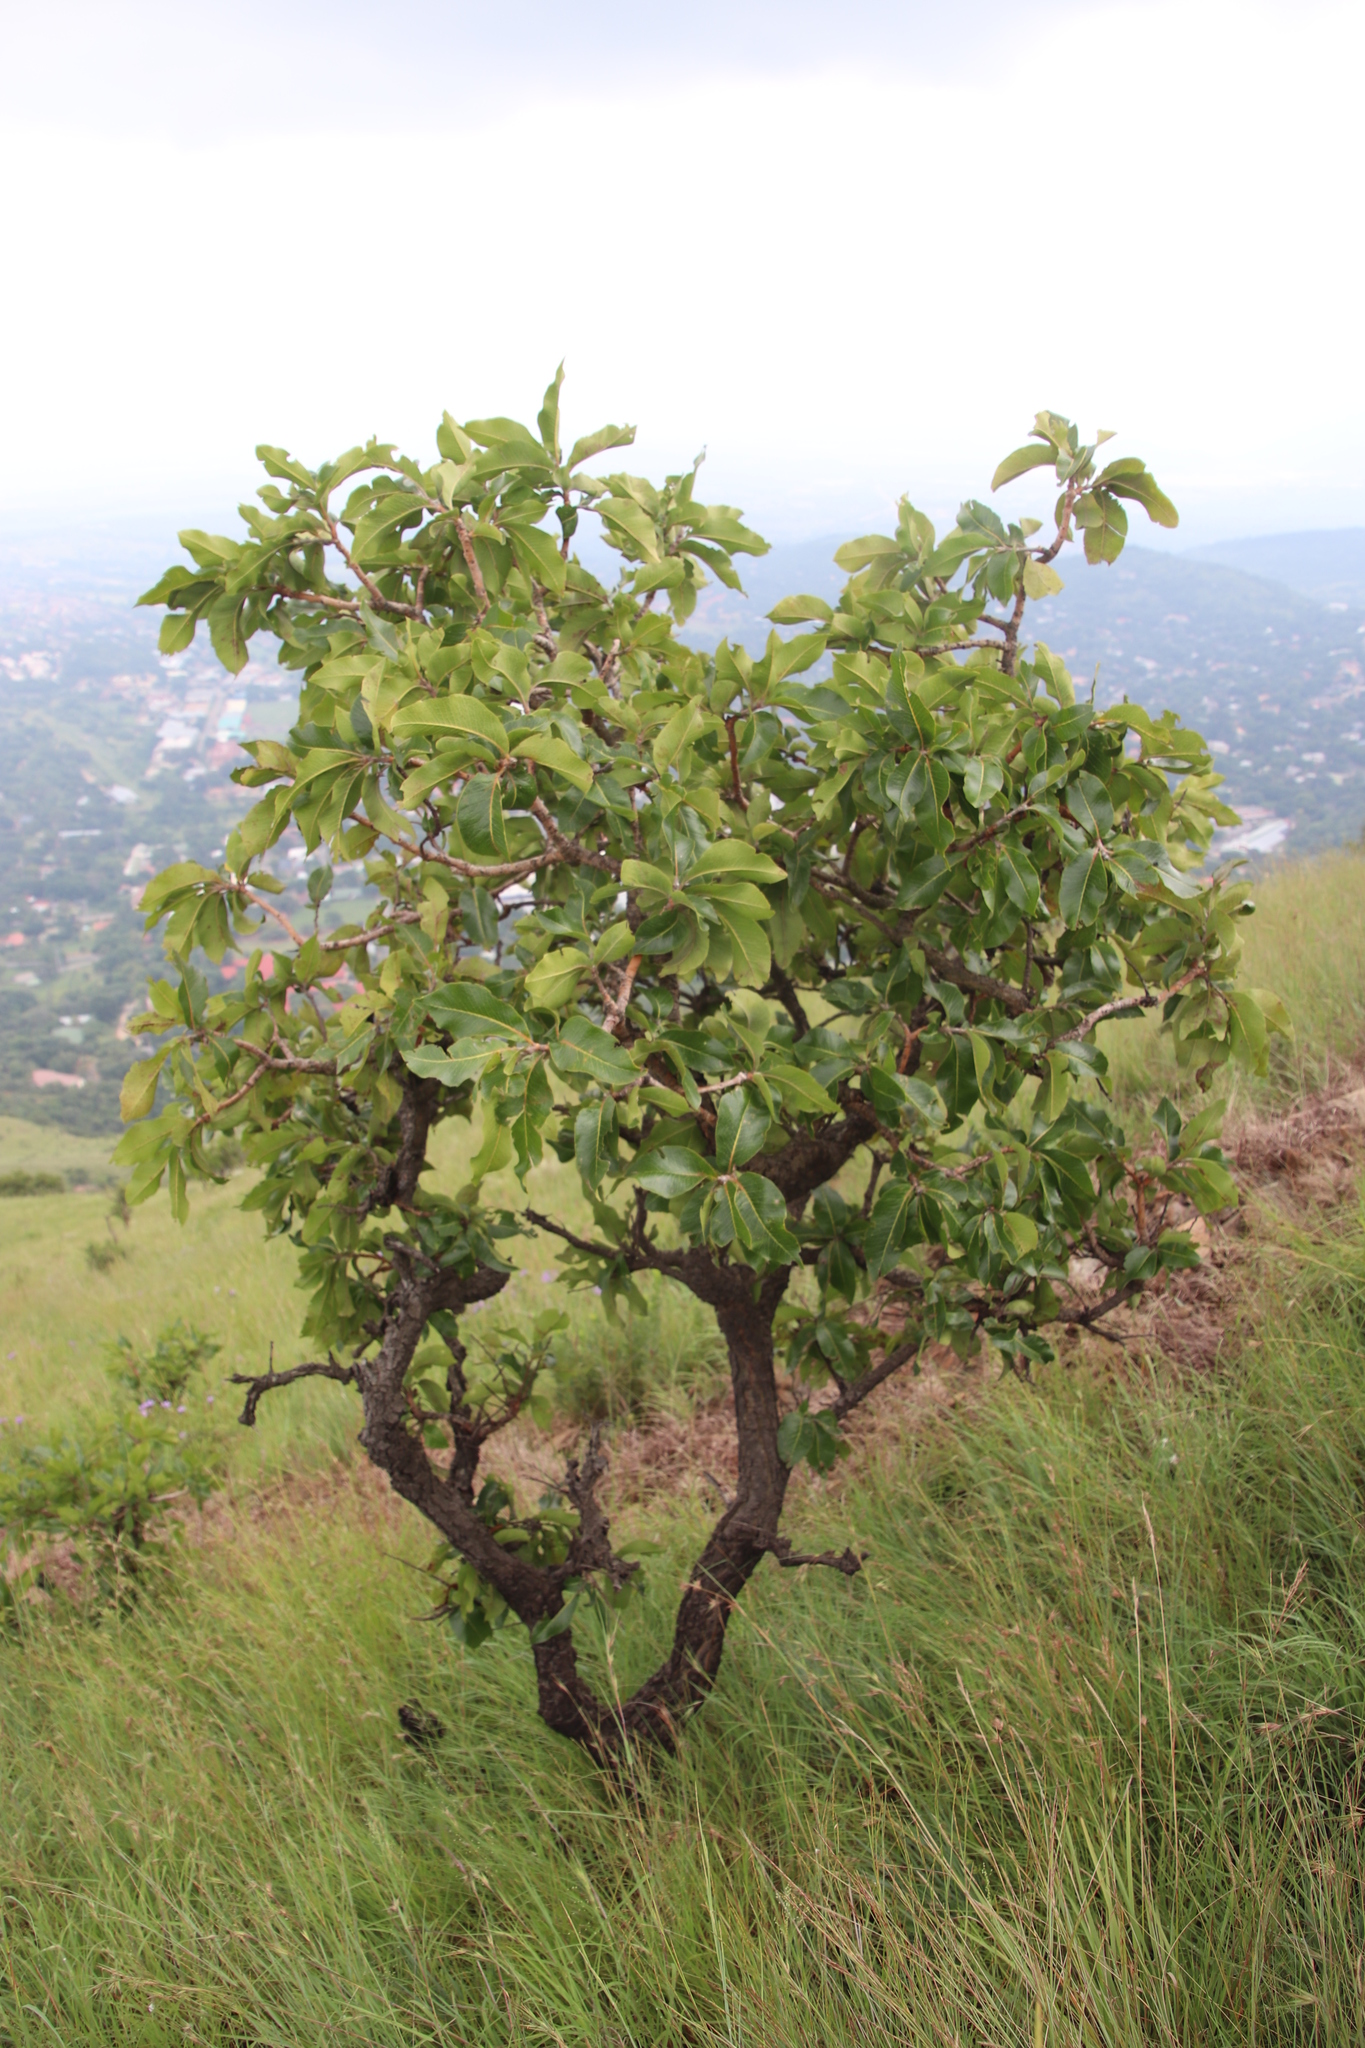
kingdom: Plantae
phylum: Tracheophyta
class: Magnoliopsida
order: Proteales
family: Proteaceae
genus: Faurea
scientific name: Faurea rochetiana
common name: Broad-leaved beech
